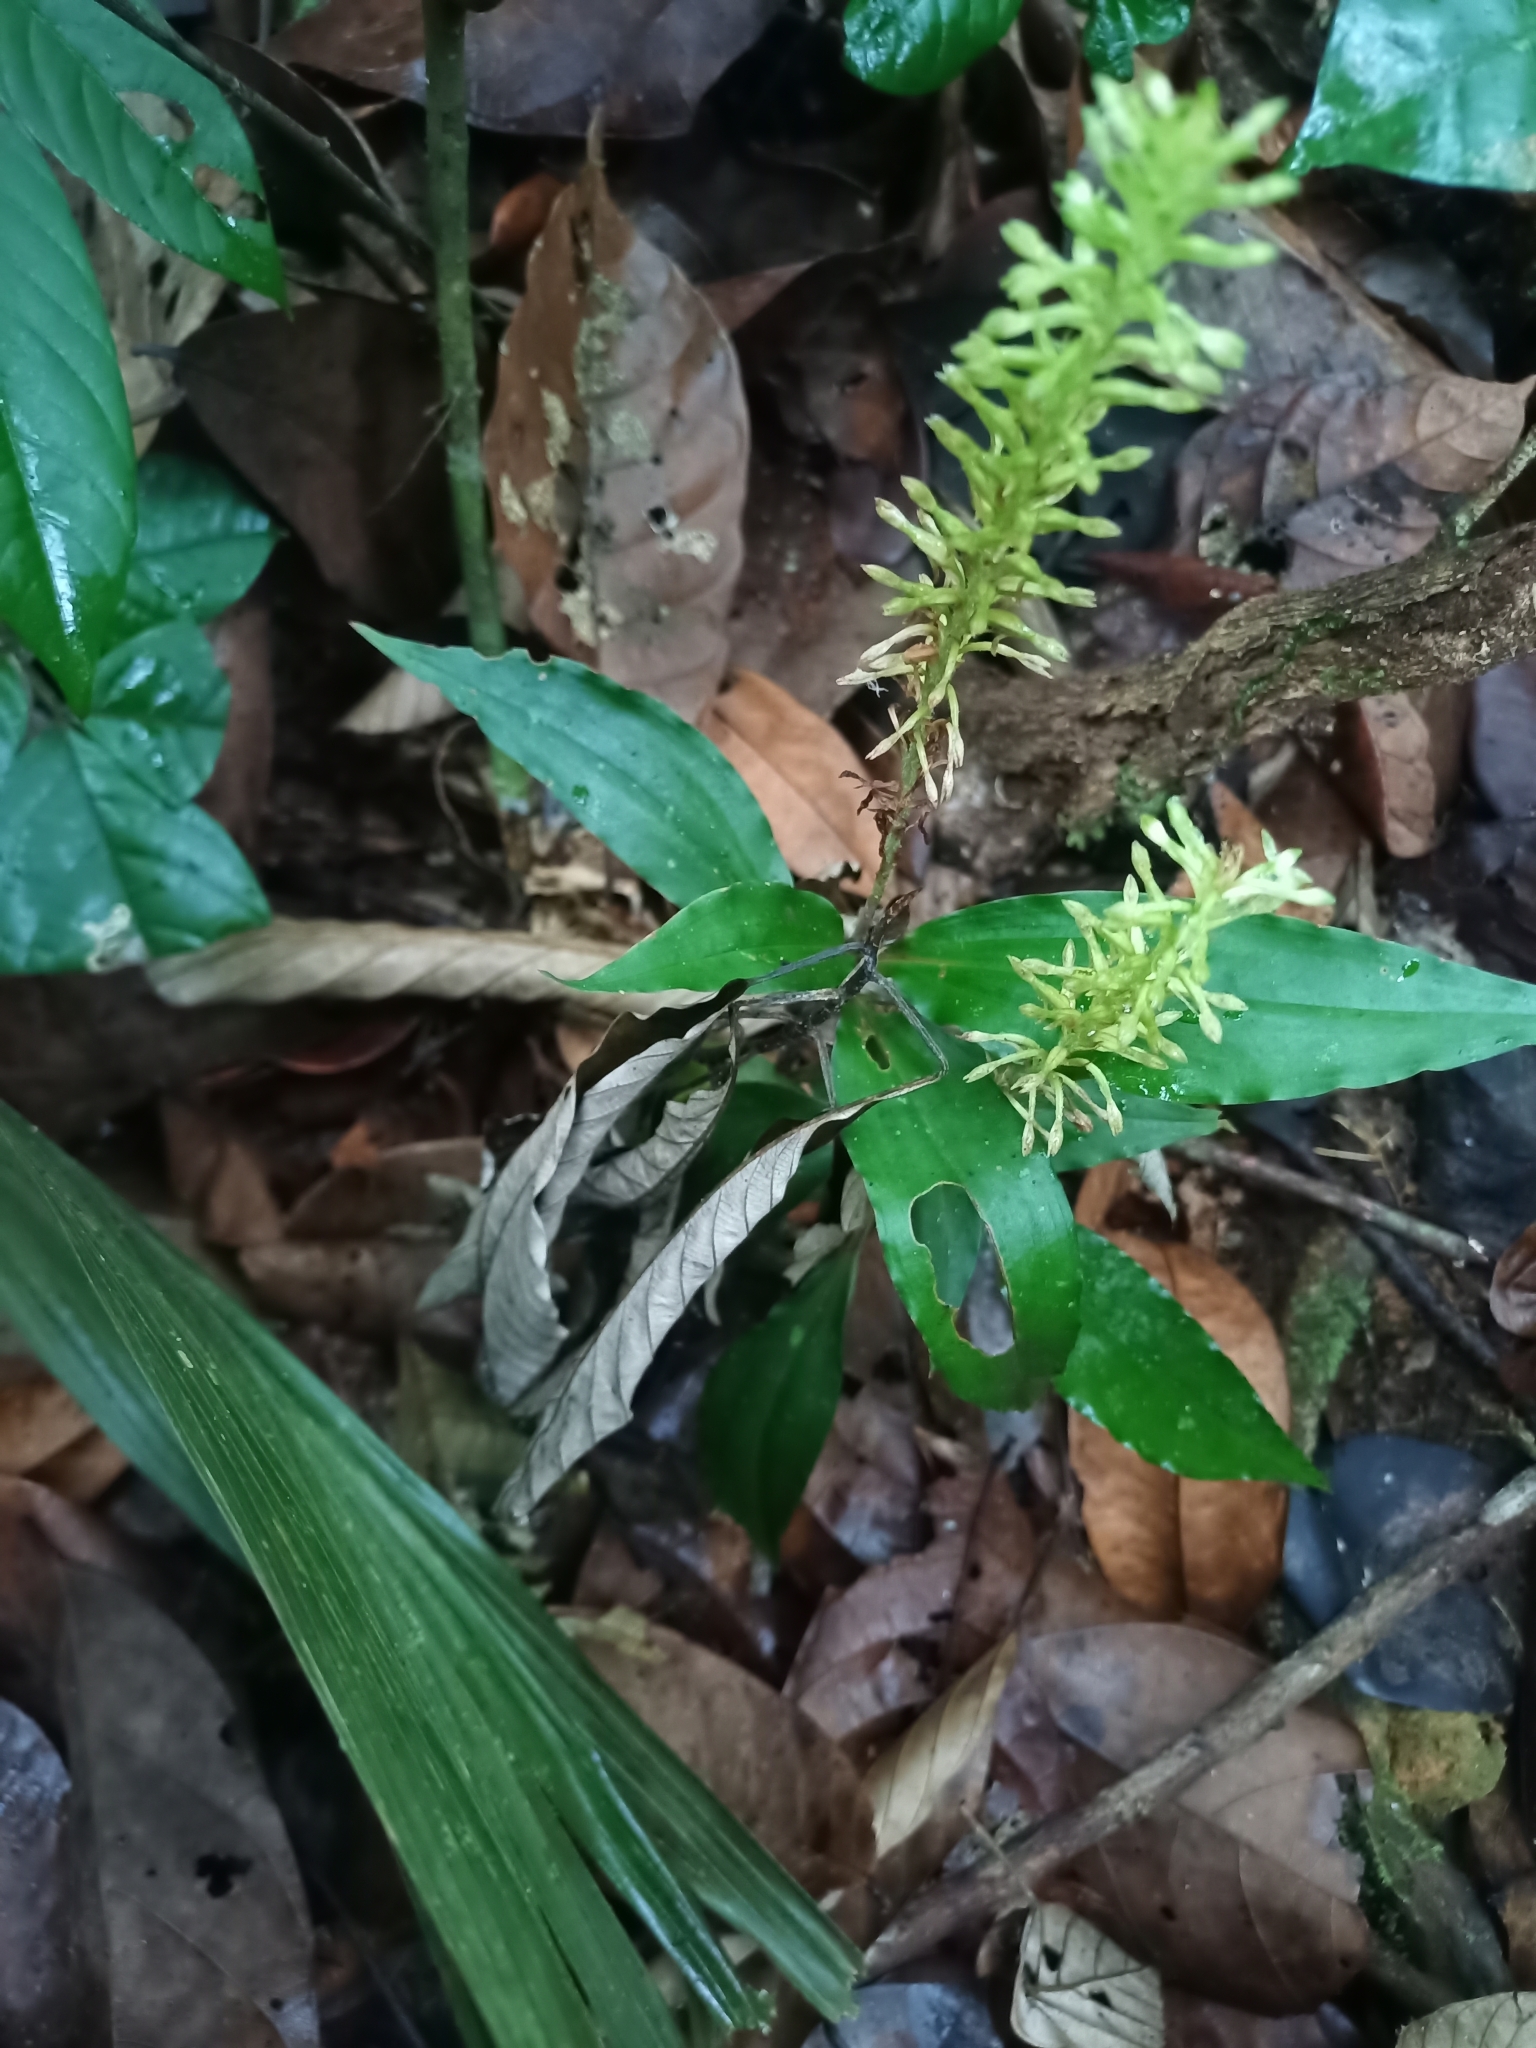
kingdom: Plantae
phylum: Tracheophyta
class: Liliopsida
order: Asparagales
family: Orchidaceae
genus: Aspidogyne
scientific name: Aspidogyne foliosa
